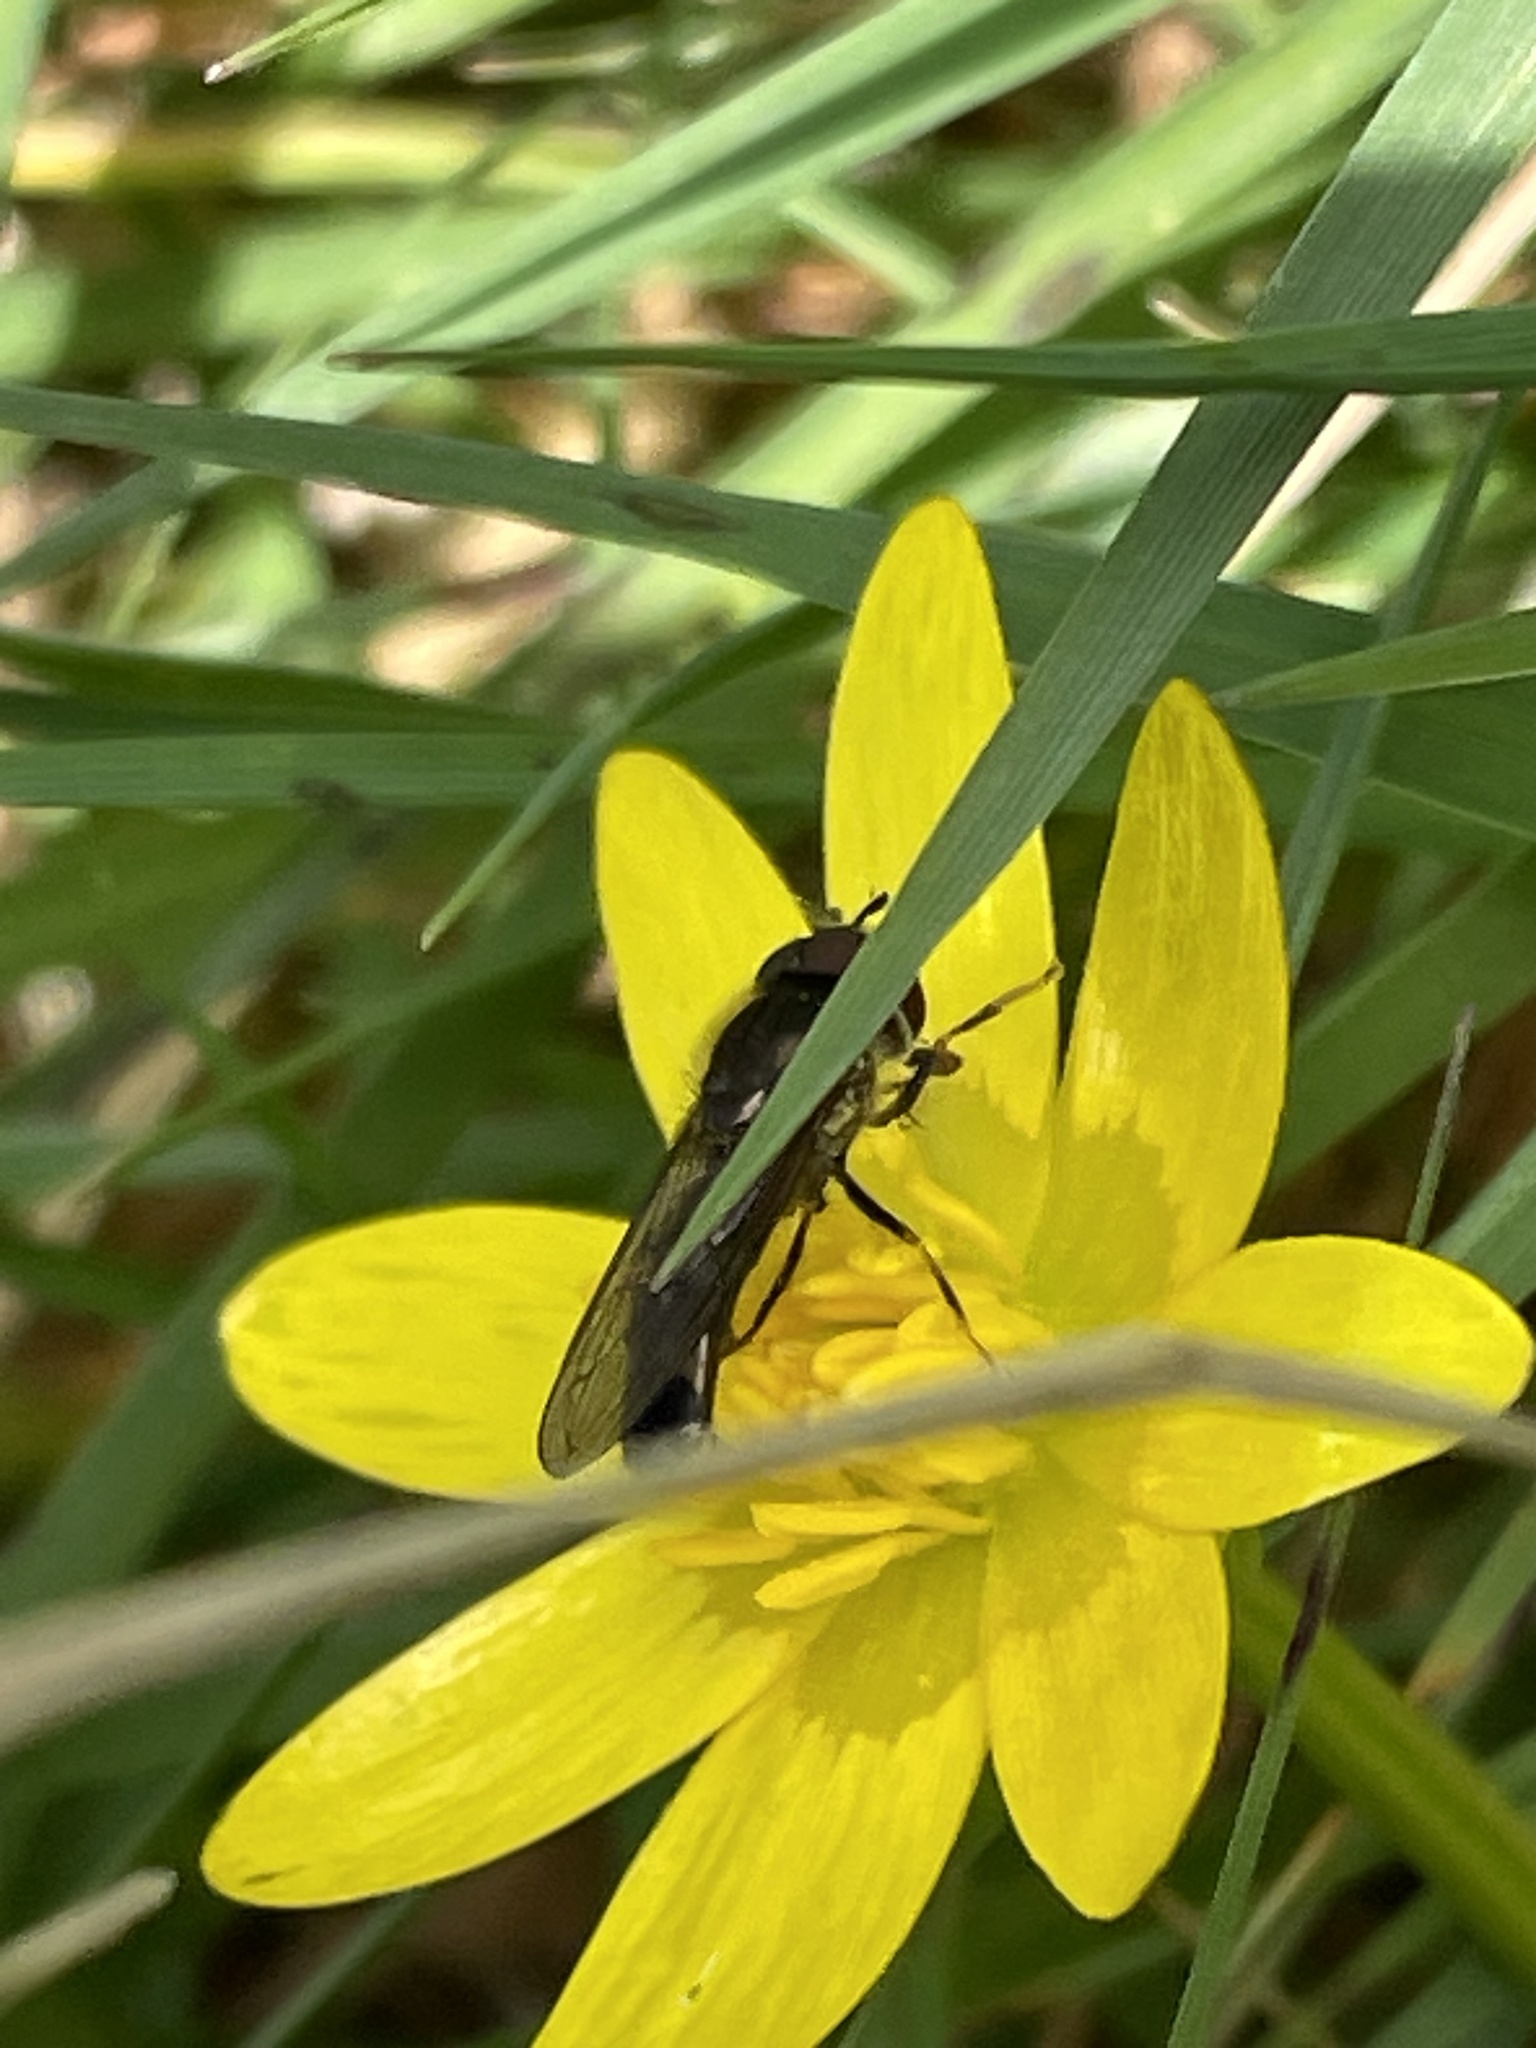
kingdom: Animalia
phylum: Arthropoda
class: Insecta
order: Diptera
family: Syrphidae
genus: Platycheirus
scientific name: Platycheirus albimanus
